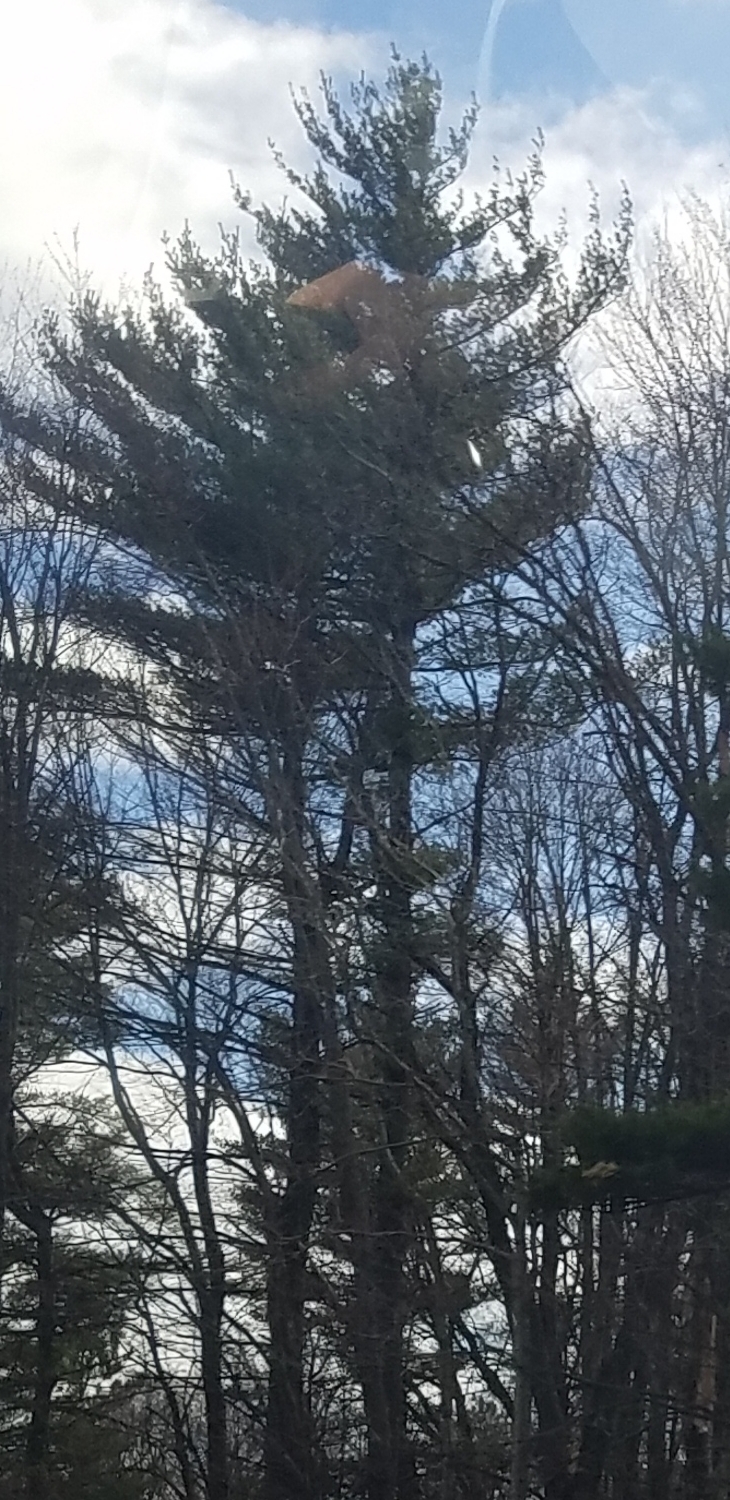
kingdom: Plantae
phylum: Tracheophyta
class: Pinopsida
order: Pinales
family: Pinaceae
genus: Pinus
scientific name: Pinus strobus
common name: Weymouth pine
